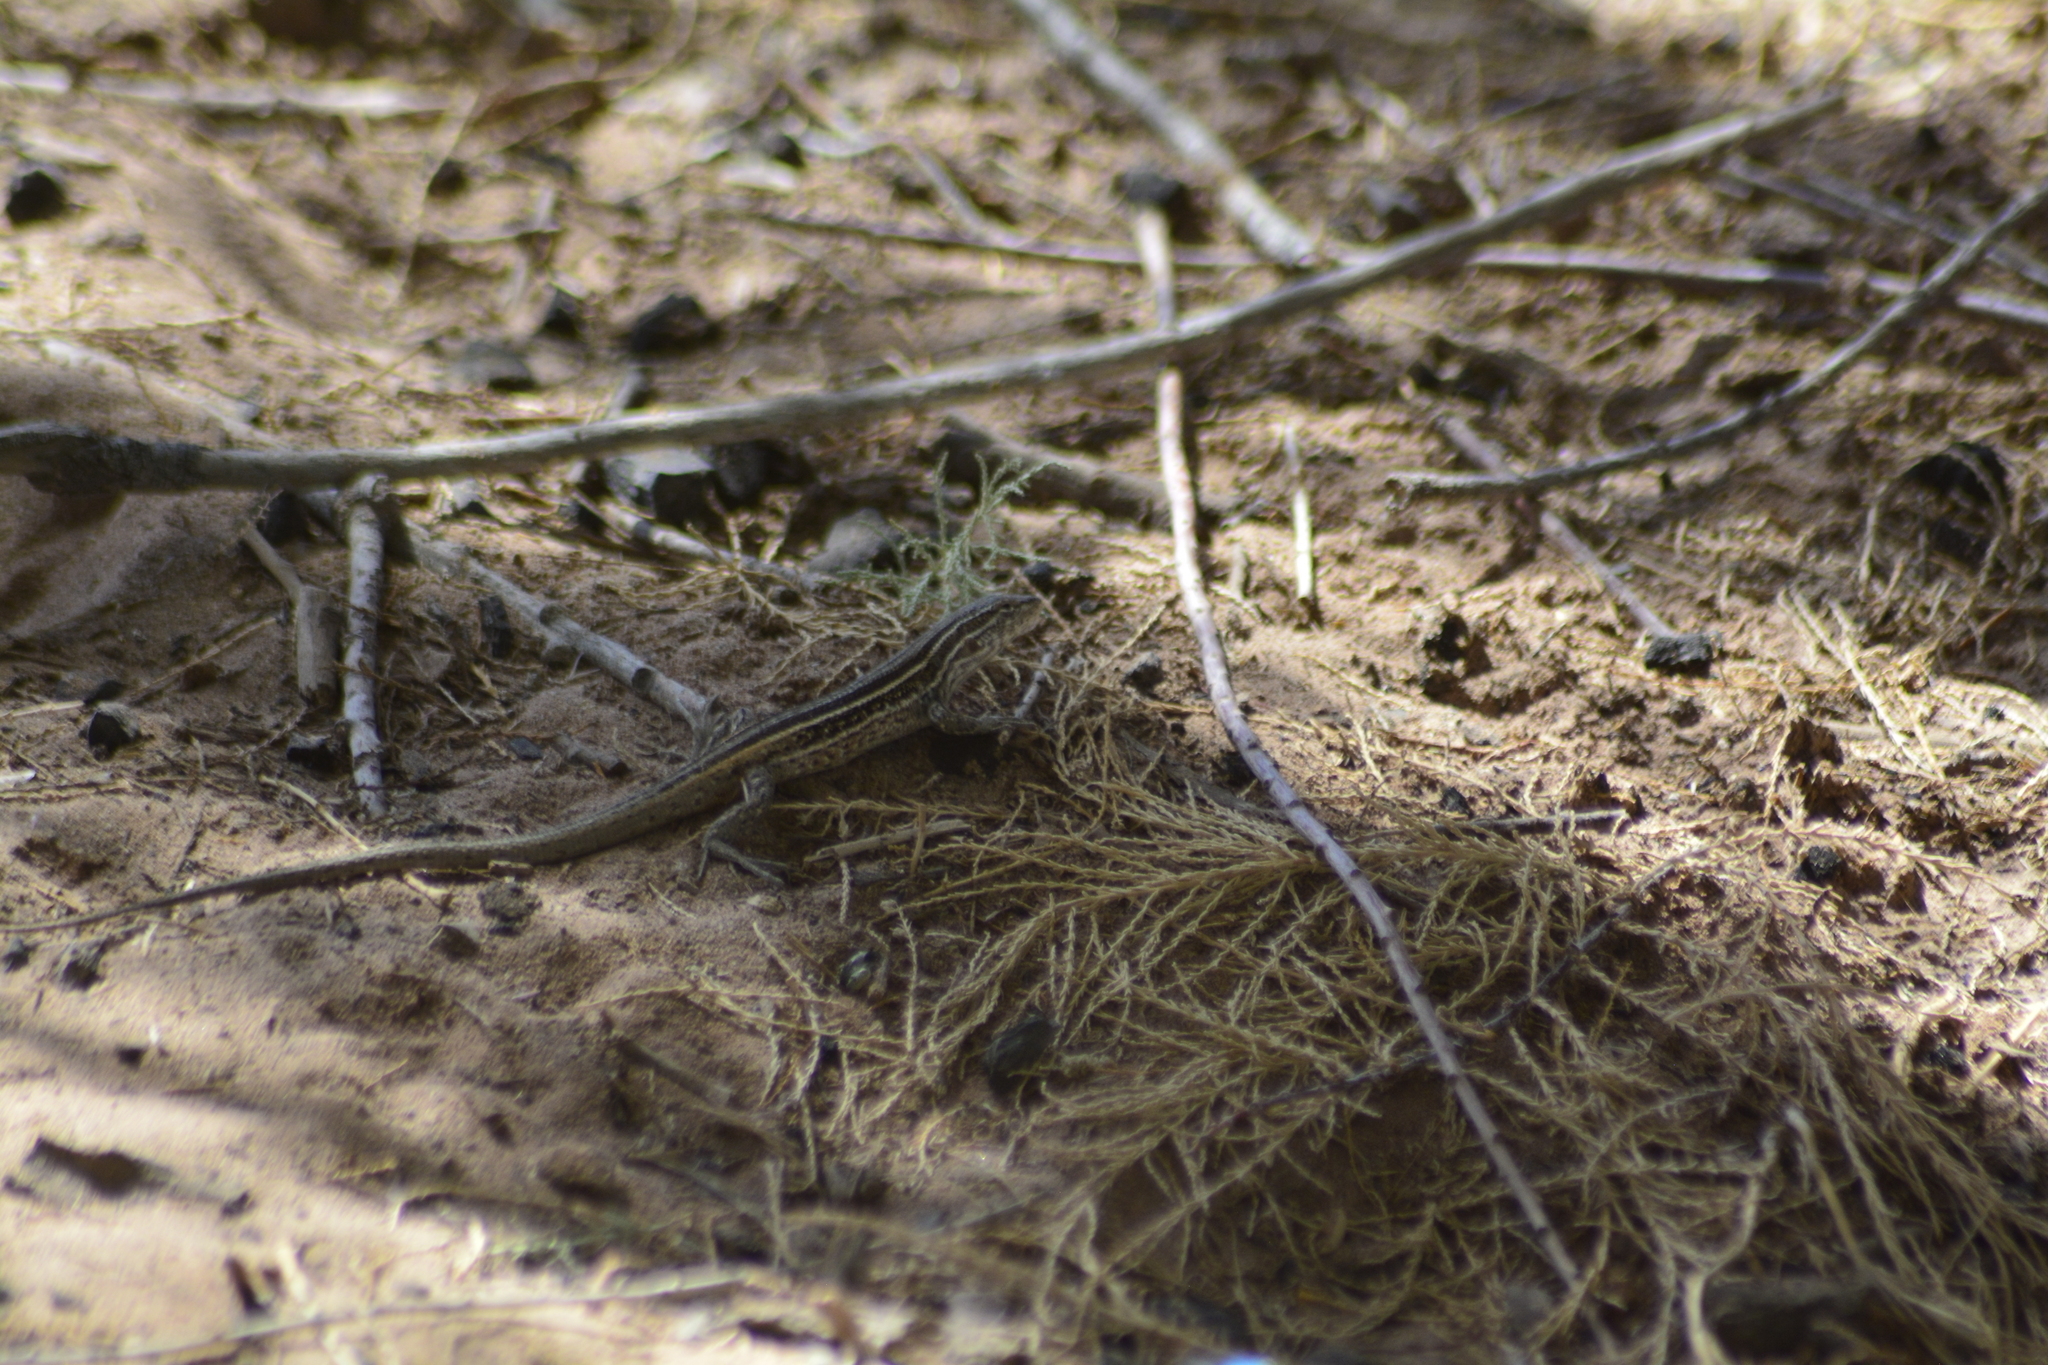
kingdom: Animalia
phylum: Chordata
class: Squamata
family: Liolaemidae
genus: Liolaemus
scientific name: Liolaemus gracilis
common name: Graceful tree iguana
